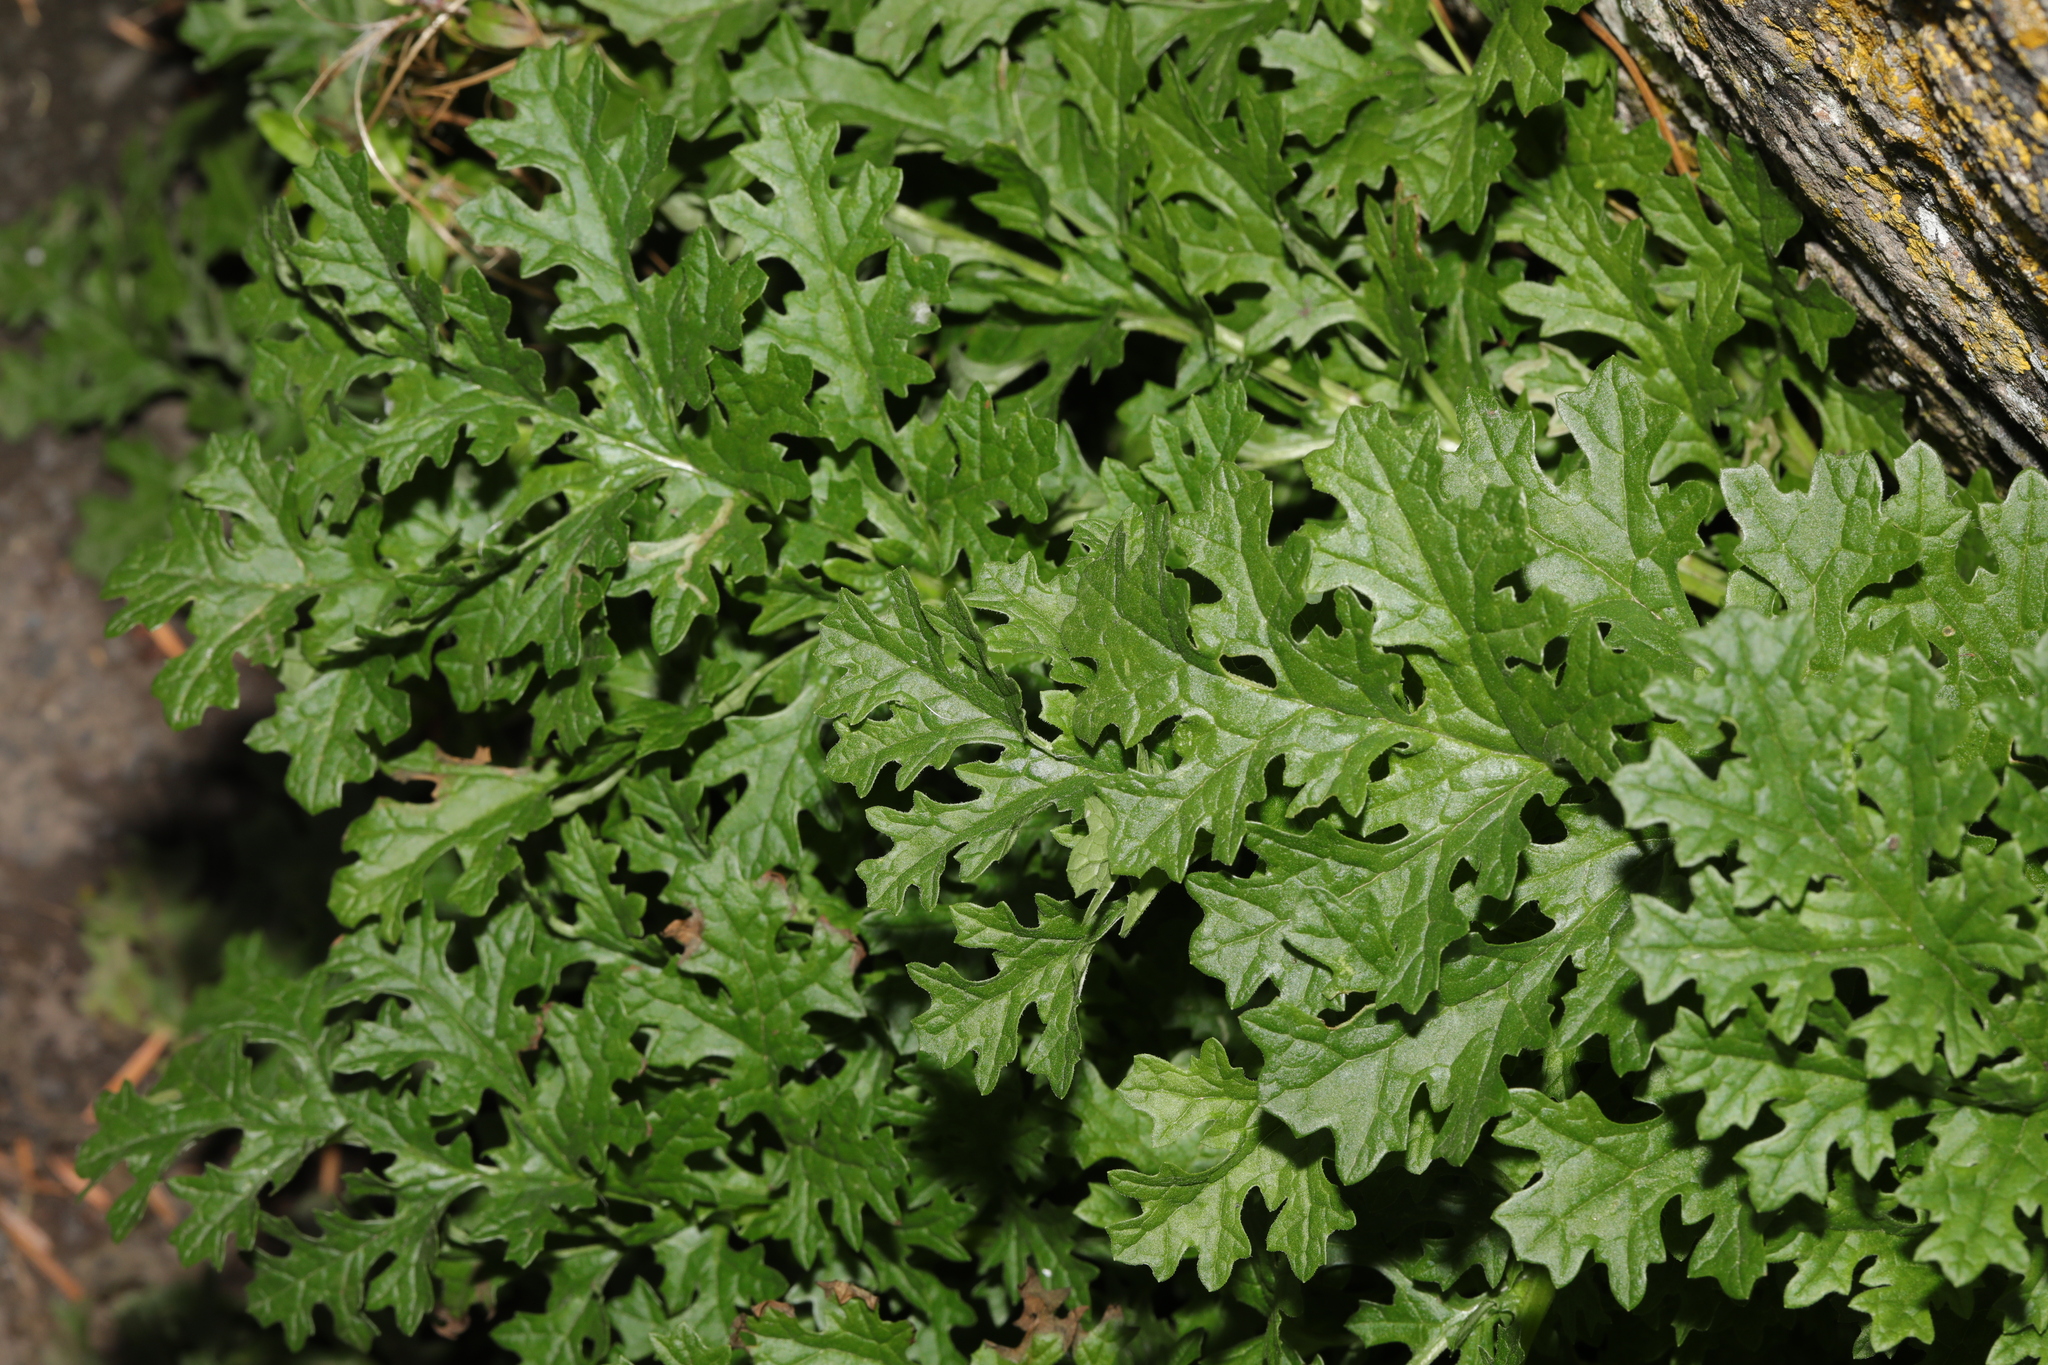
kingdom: Plantae
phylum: Tracheophyta
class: Magnoliopsida
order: Asterales
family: Asteraceae
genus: Jacobaea
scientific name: Jacobaea vulgaris
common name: Stinking willie
